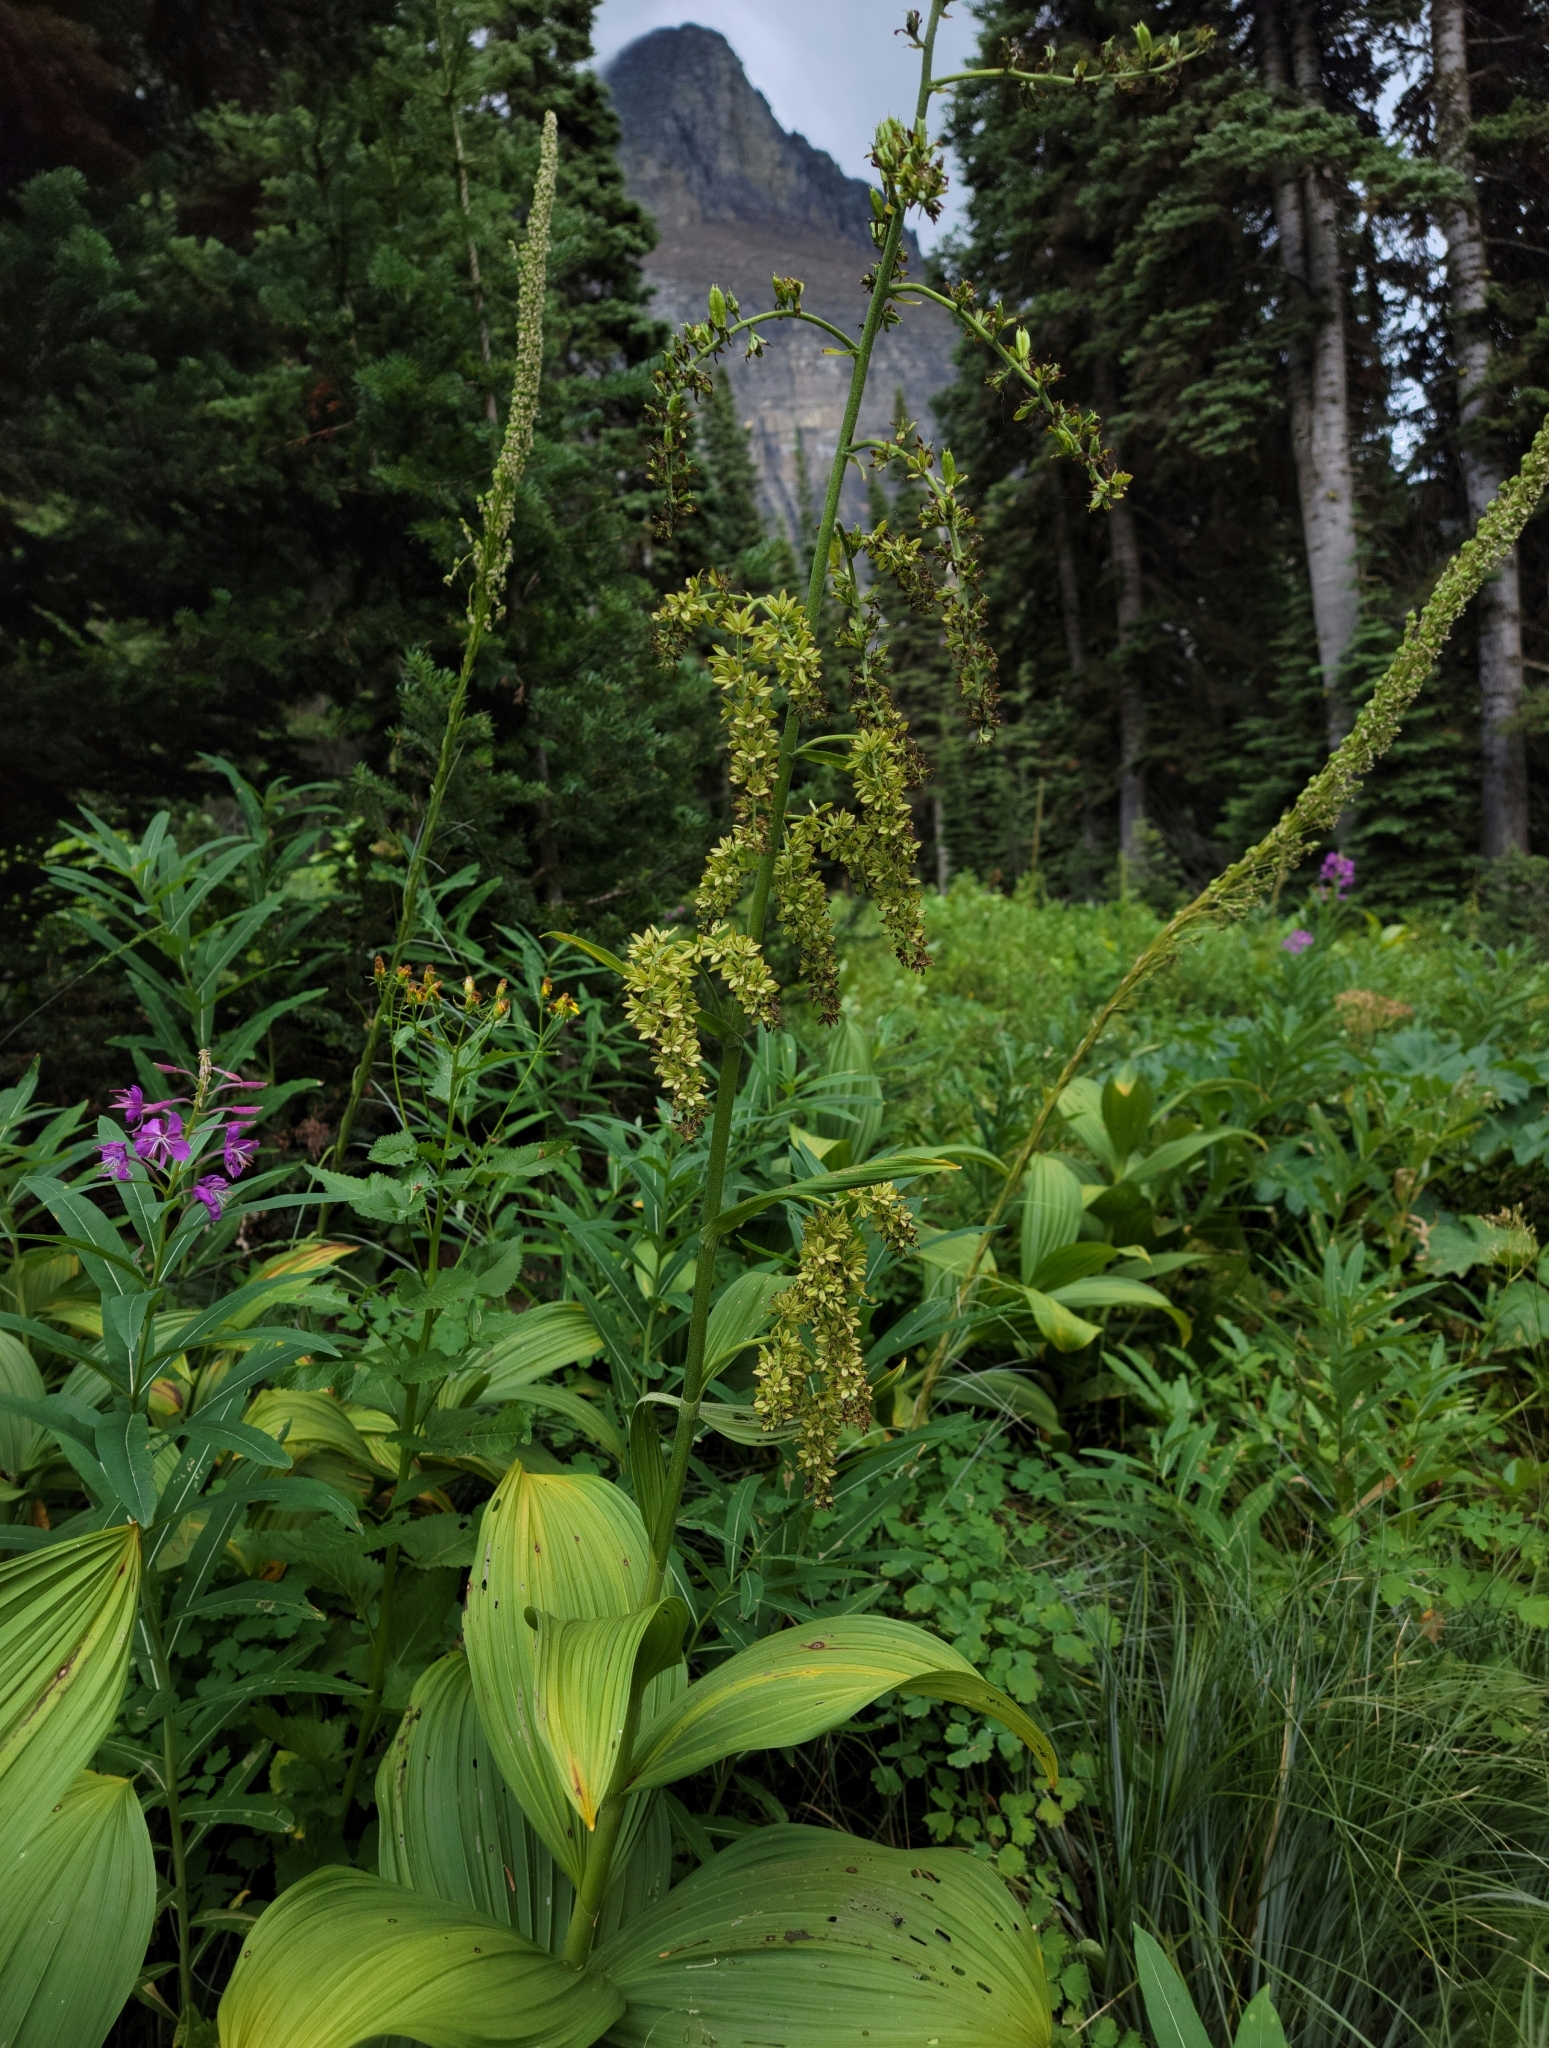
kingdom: Plantae
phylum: Tracheophyta
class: Liliopsida
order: Liliales
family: Melanthiaceae
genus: Veratrum
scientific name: Veratrum viride
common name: American false hellebore
